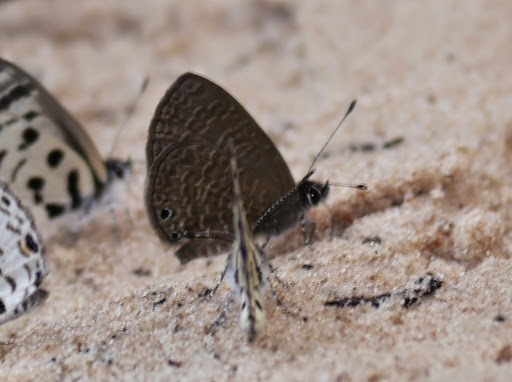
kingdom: Animalia
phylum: Arthropoda
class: Insecta
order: Lepidoptera
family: Lycaenidae
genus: Pseudonacaduba
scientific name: Pseudonacaduba aethiops
